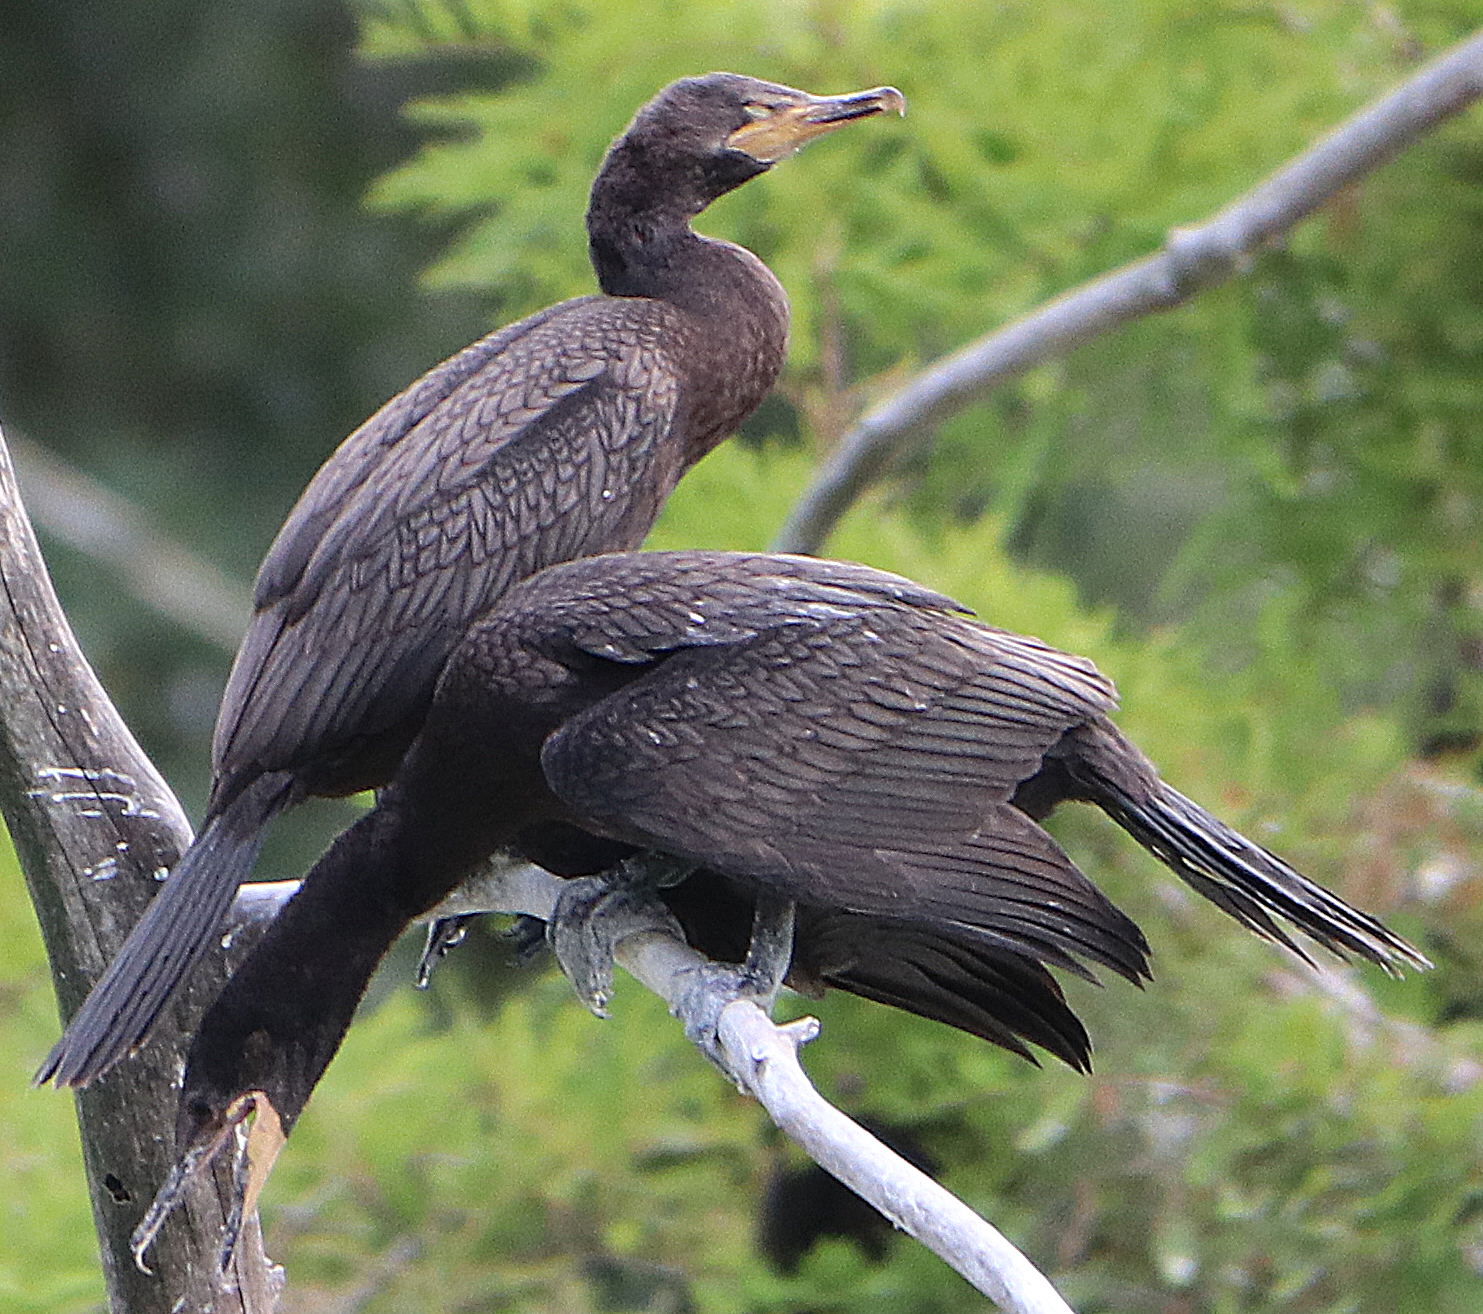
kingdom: Animalia
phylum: Chordata
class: Aves
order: Suliformes
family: Phalacrocoracidae
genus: Phalacrocorax
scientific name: Phalacrocorax brasilianus
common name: Neotropic cormorant
